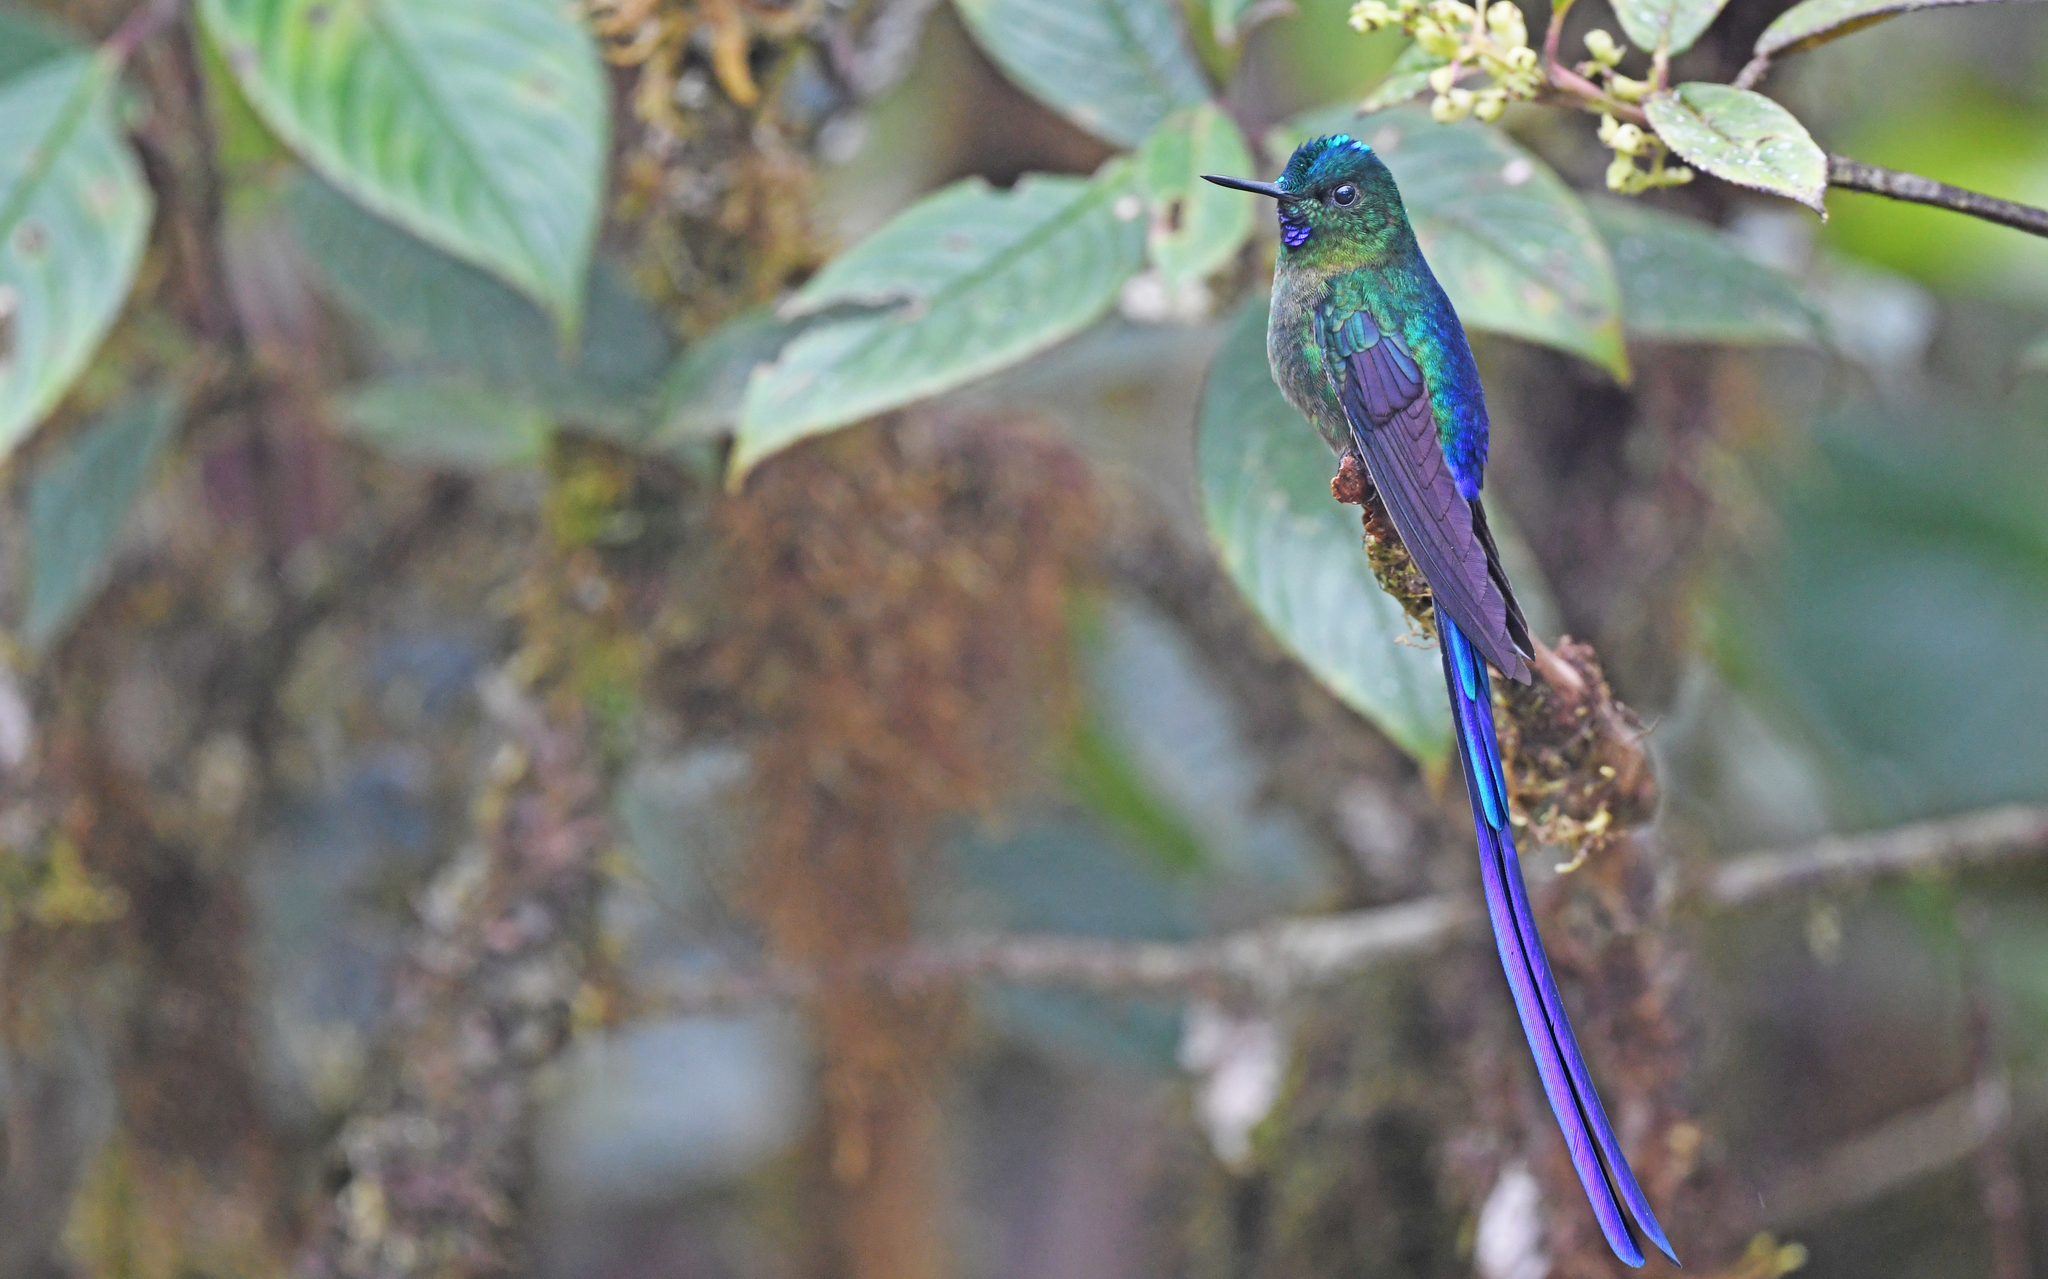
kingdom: Animalia
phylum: Chordata
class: Aves
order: Apodiformes
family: Trochilidae
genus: Aglaiocercus
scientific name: Aglaiocercus coelestis
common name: Violet-tailed sylph
